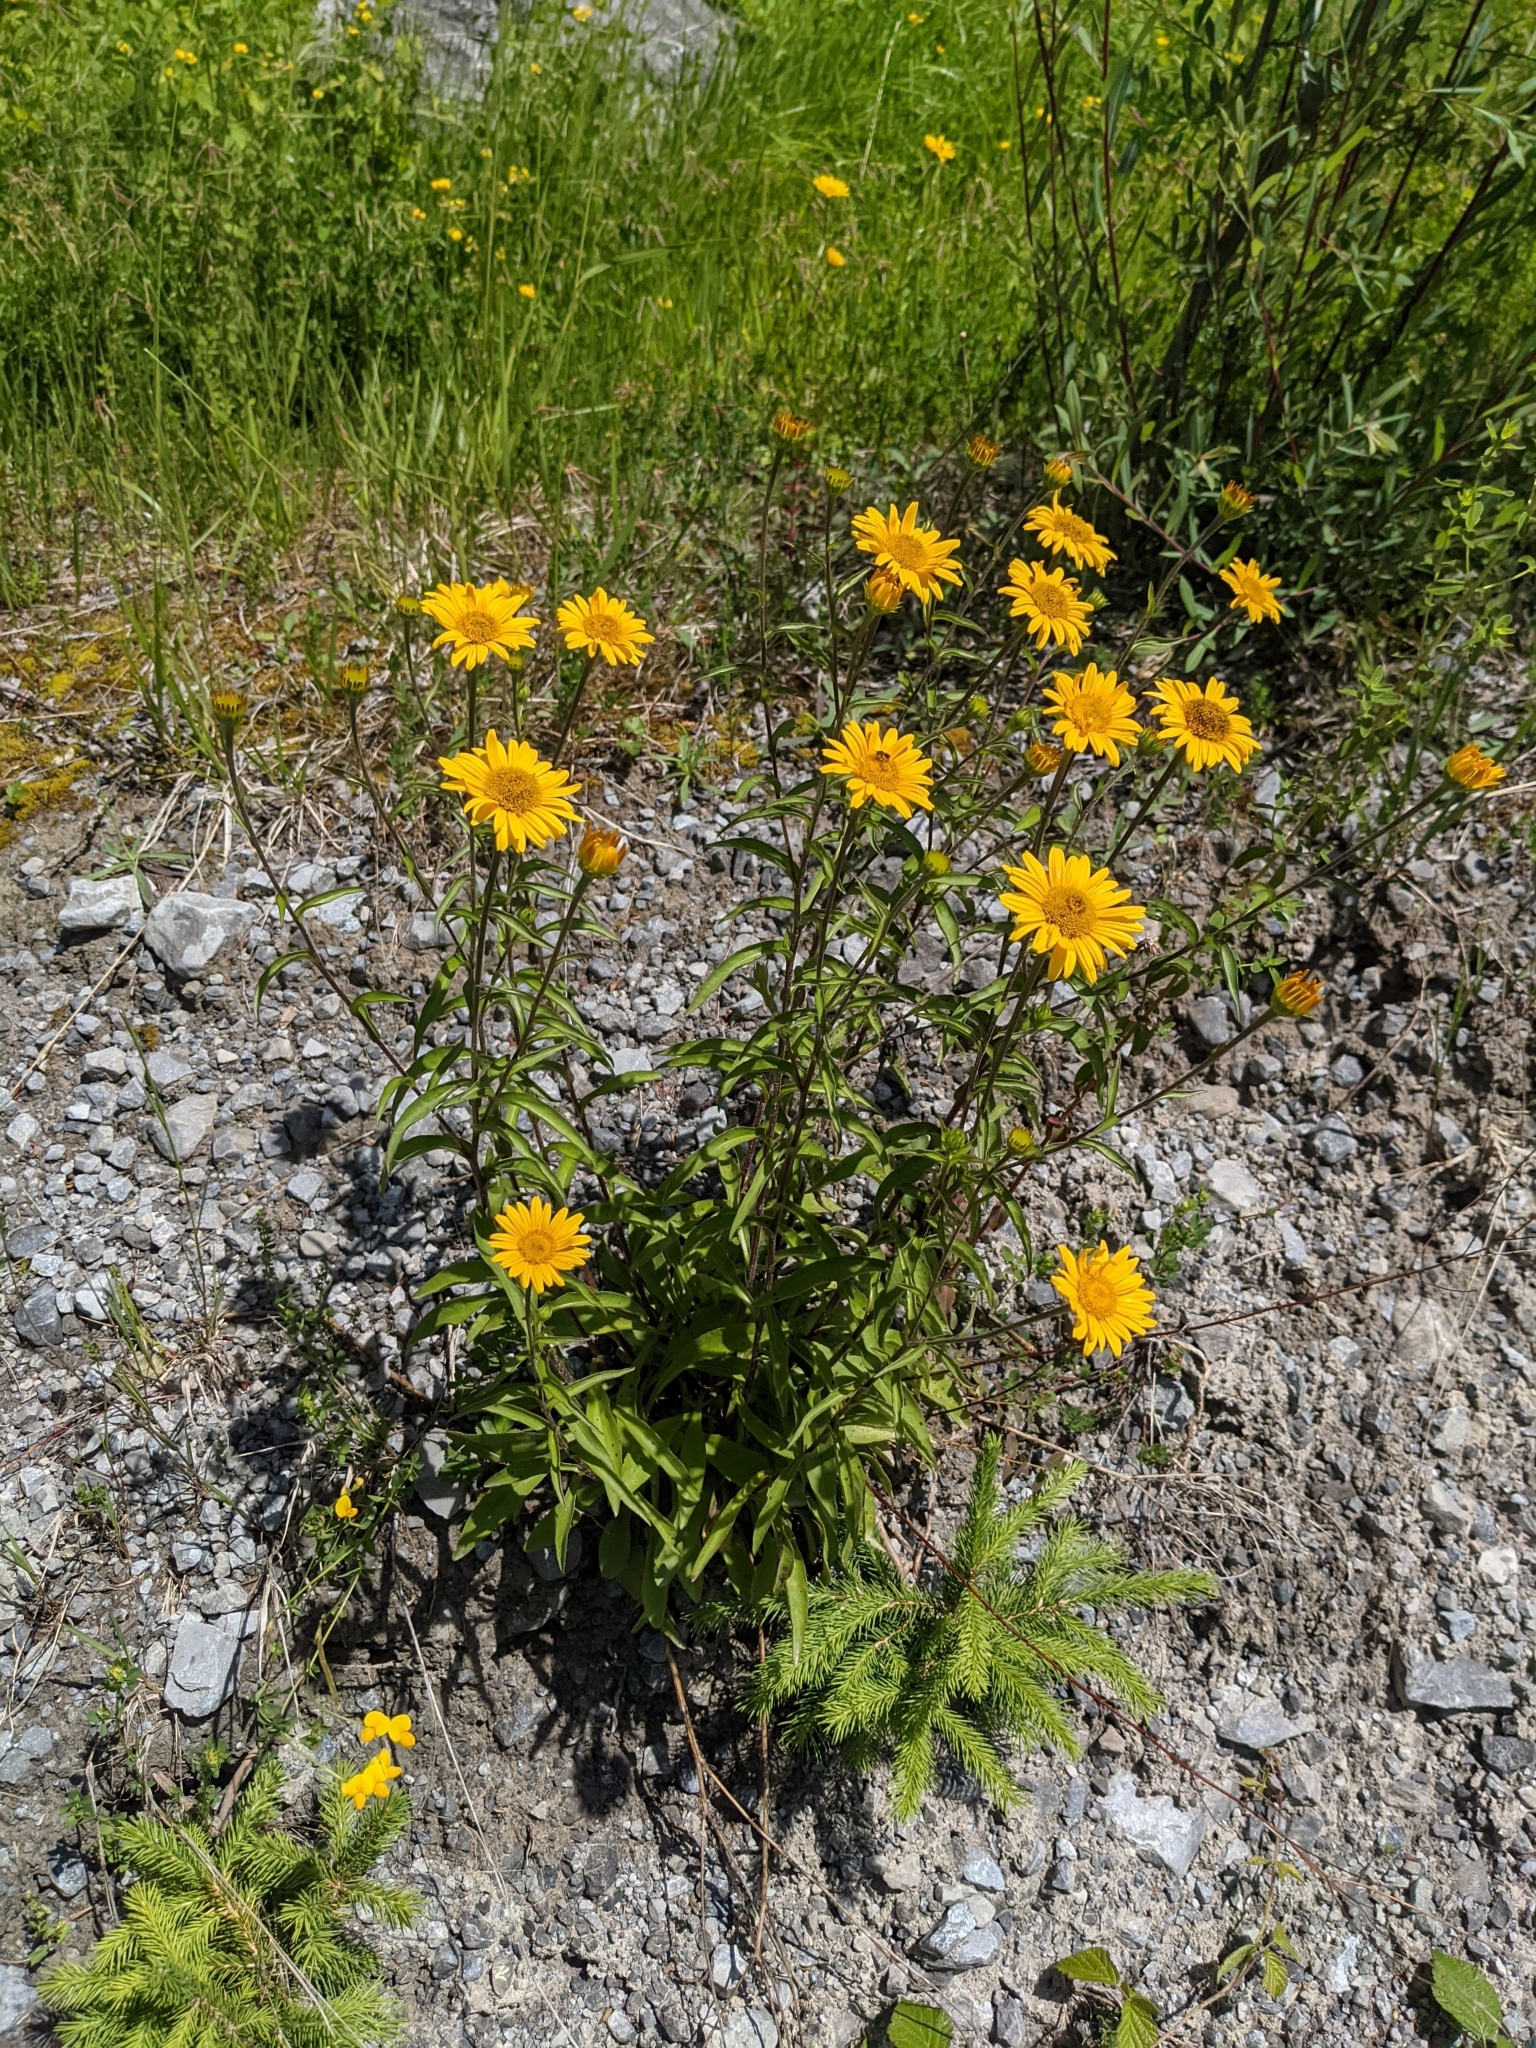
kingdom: Plantae
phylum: Tracheophyta
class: Magnoliopsida
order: Asterales
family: Asteraceae
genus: Buphthalmum
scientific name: Buphthalmum salicifolium
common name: Willow-leaved yellow-oxeye
